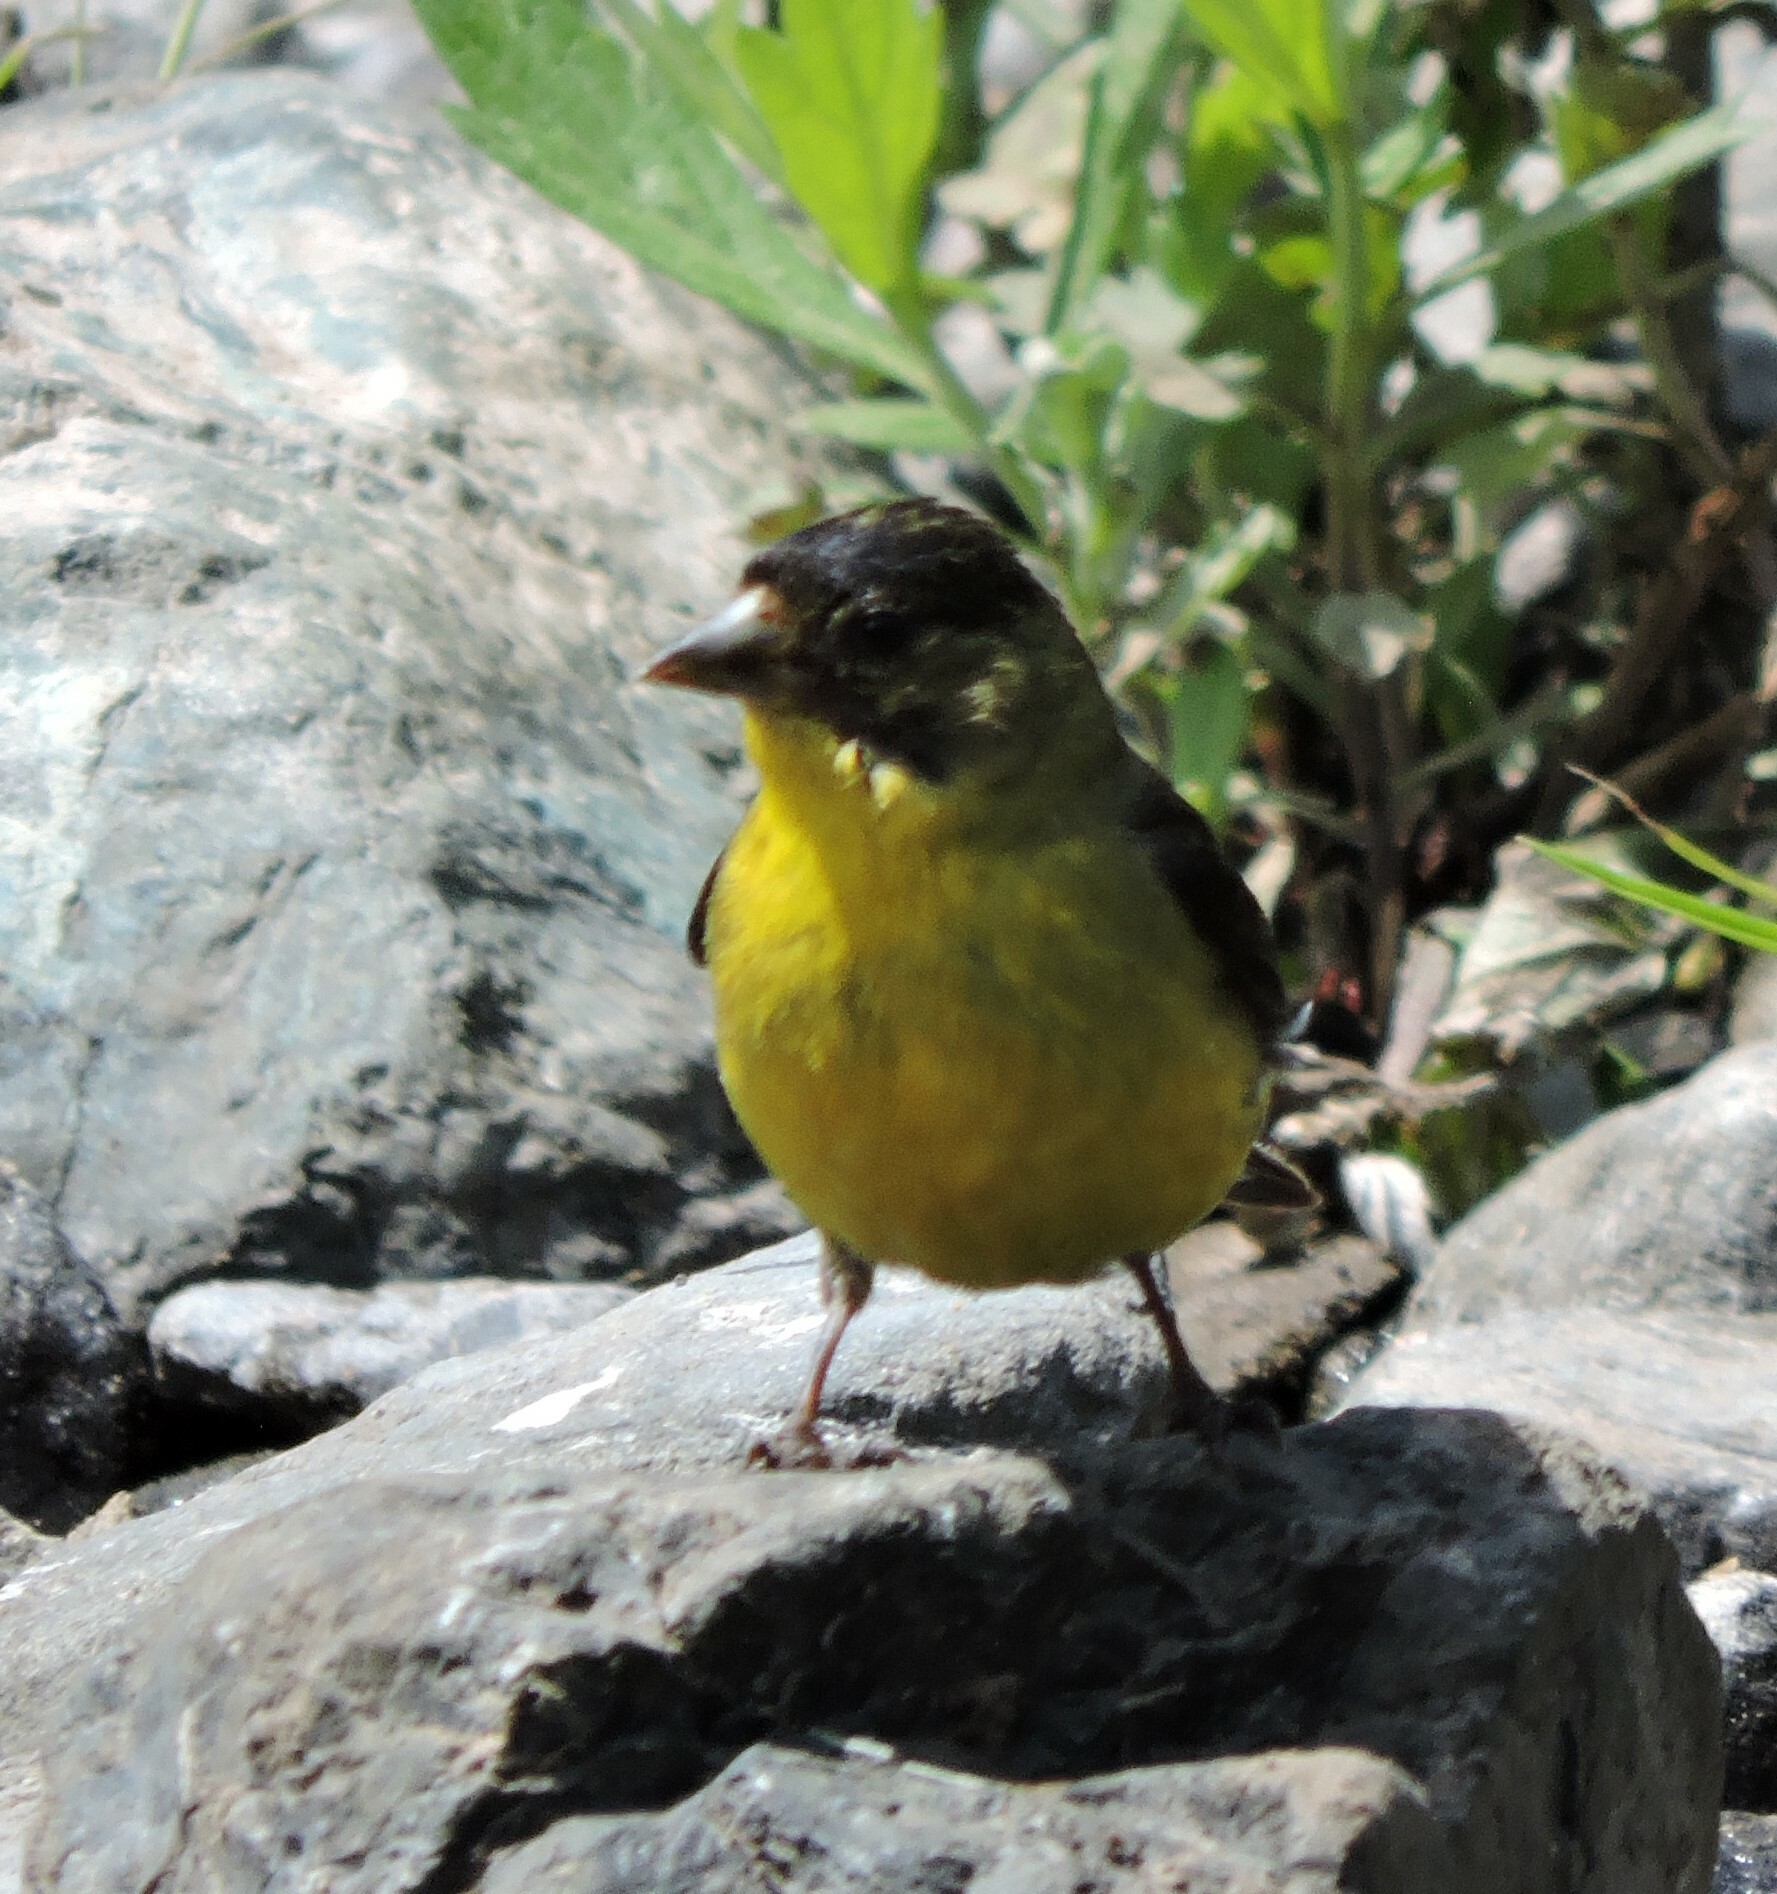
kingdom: Animalia
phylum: Chordata
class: Aves
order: Passeriformes
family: Fringillidae
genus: Spinus
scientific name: Spinus psaltria
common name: Lesser goldfinch
